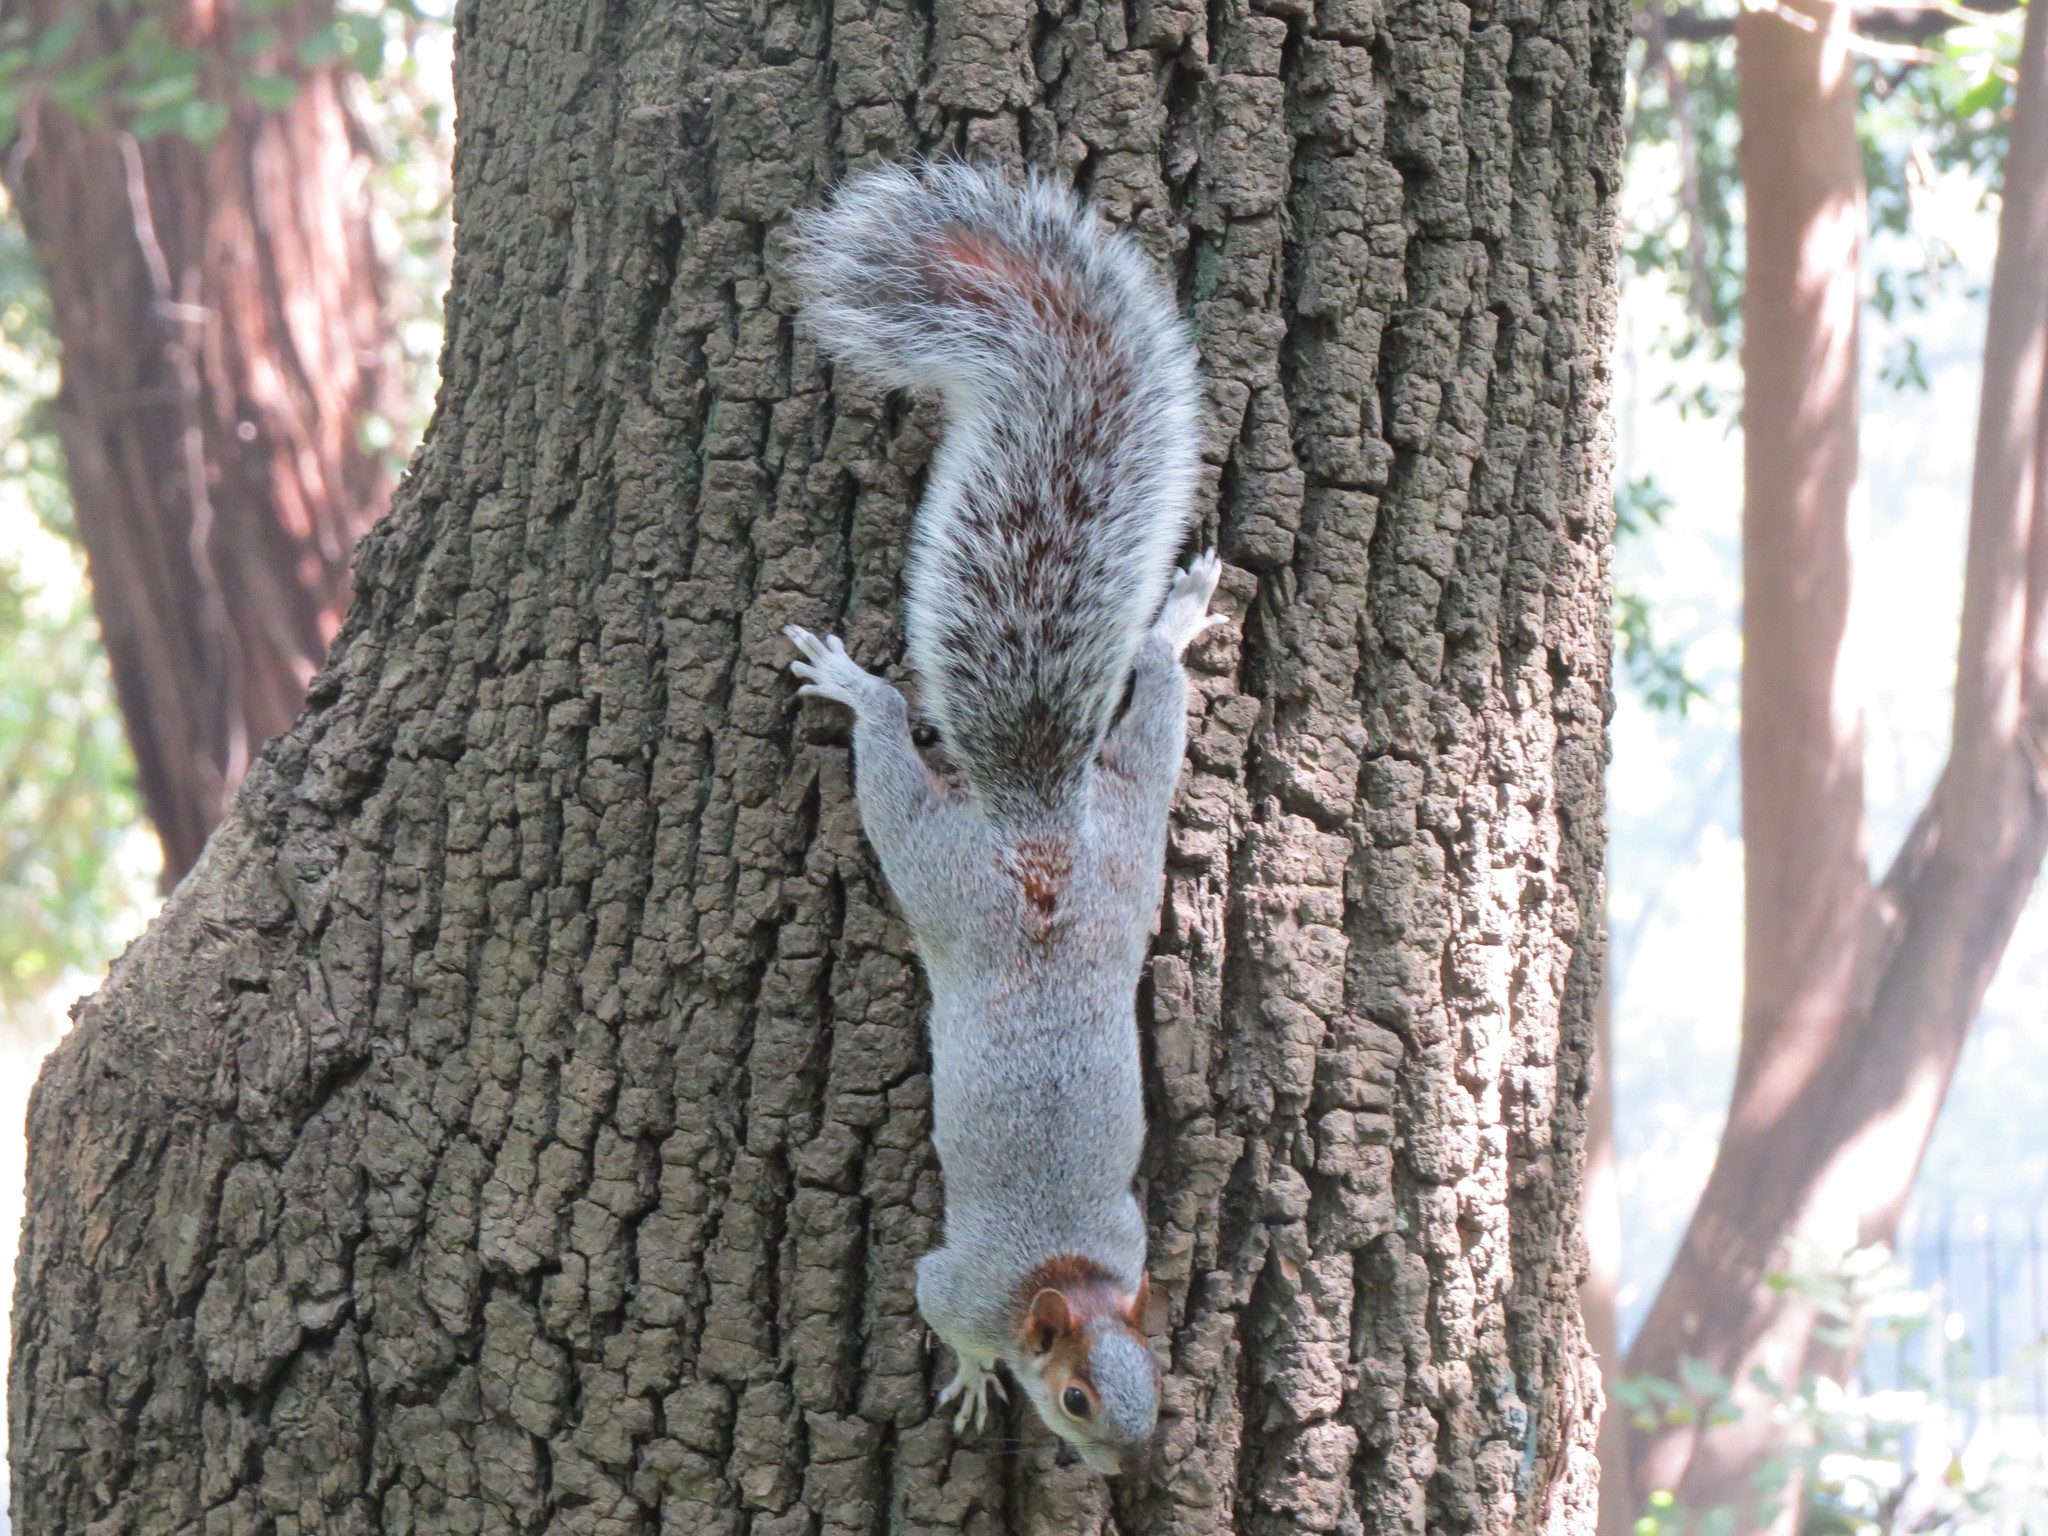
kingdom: Animalia
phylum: Chordata
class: Mammalia
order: Rodentia
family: Sciuridae
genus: Sciurus
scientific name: Sciurus aureogaster
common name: Red-bellied squirrel
